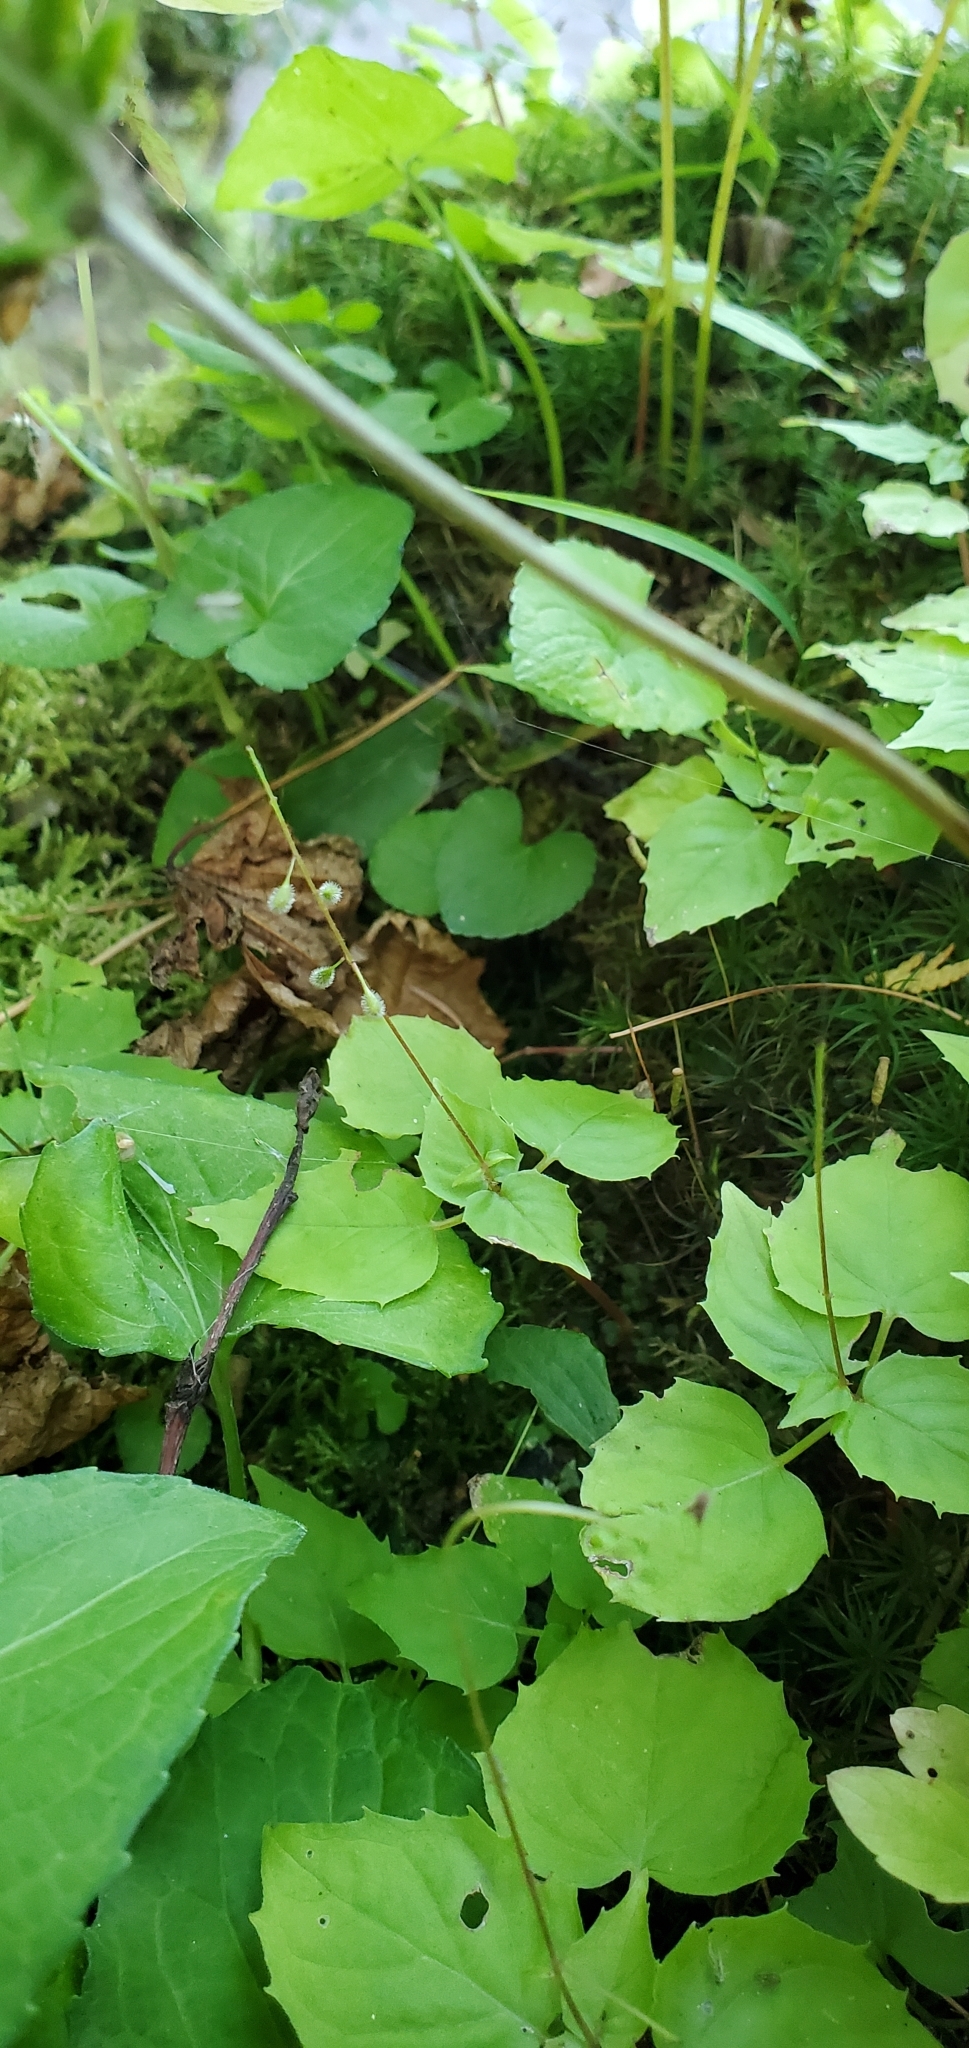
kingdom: Plantae
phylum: Tracheophyta
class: Magnoliopsida
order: Myrtales
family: Onagraceae
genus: Circaea
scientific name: Circaea alpina
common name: Alpine enchanter's-nightshade
